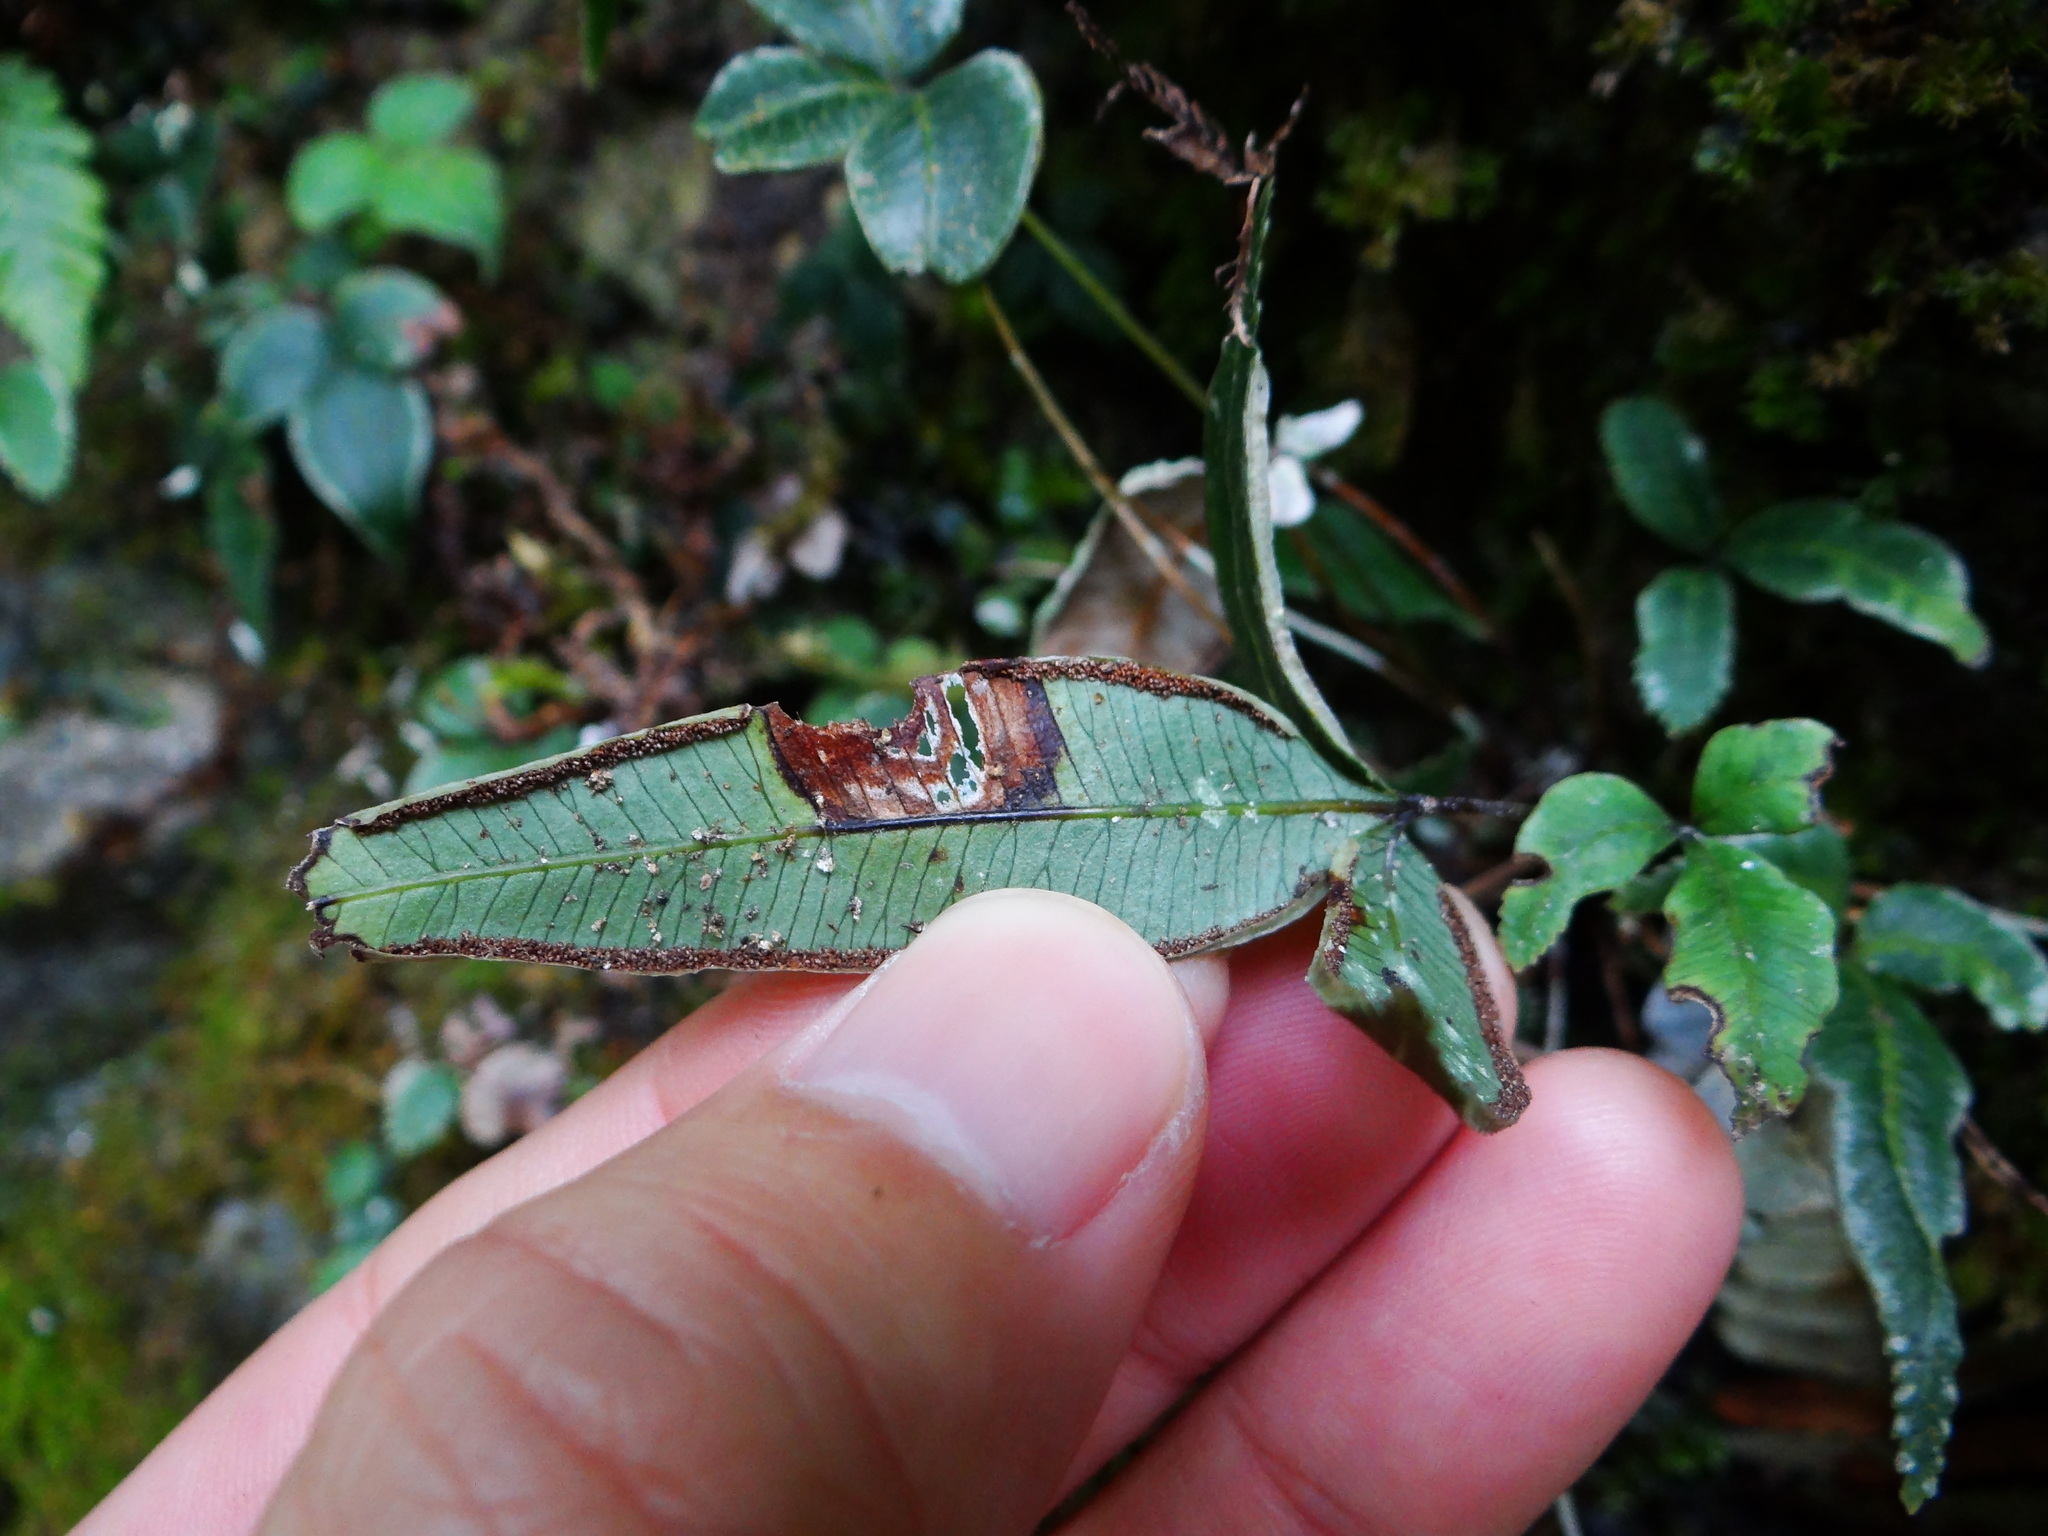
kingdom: Plantae
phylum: Tracheophyta
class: Polypodiopsida
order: Polypodiales
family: Pteridaceae
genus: Pteris
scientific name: Pteris deltodon
